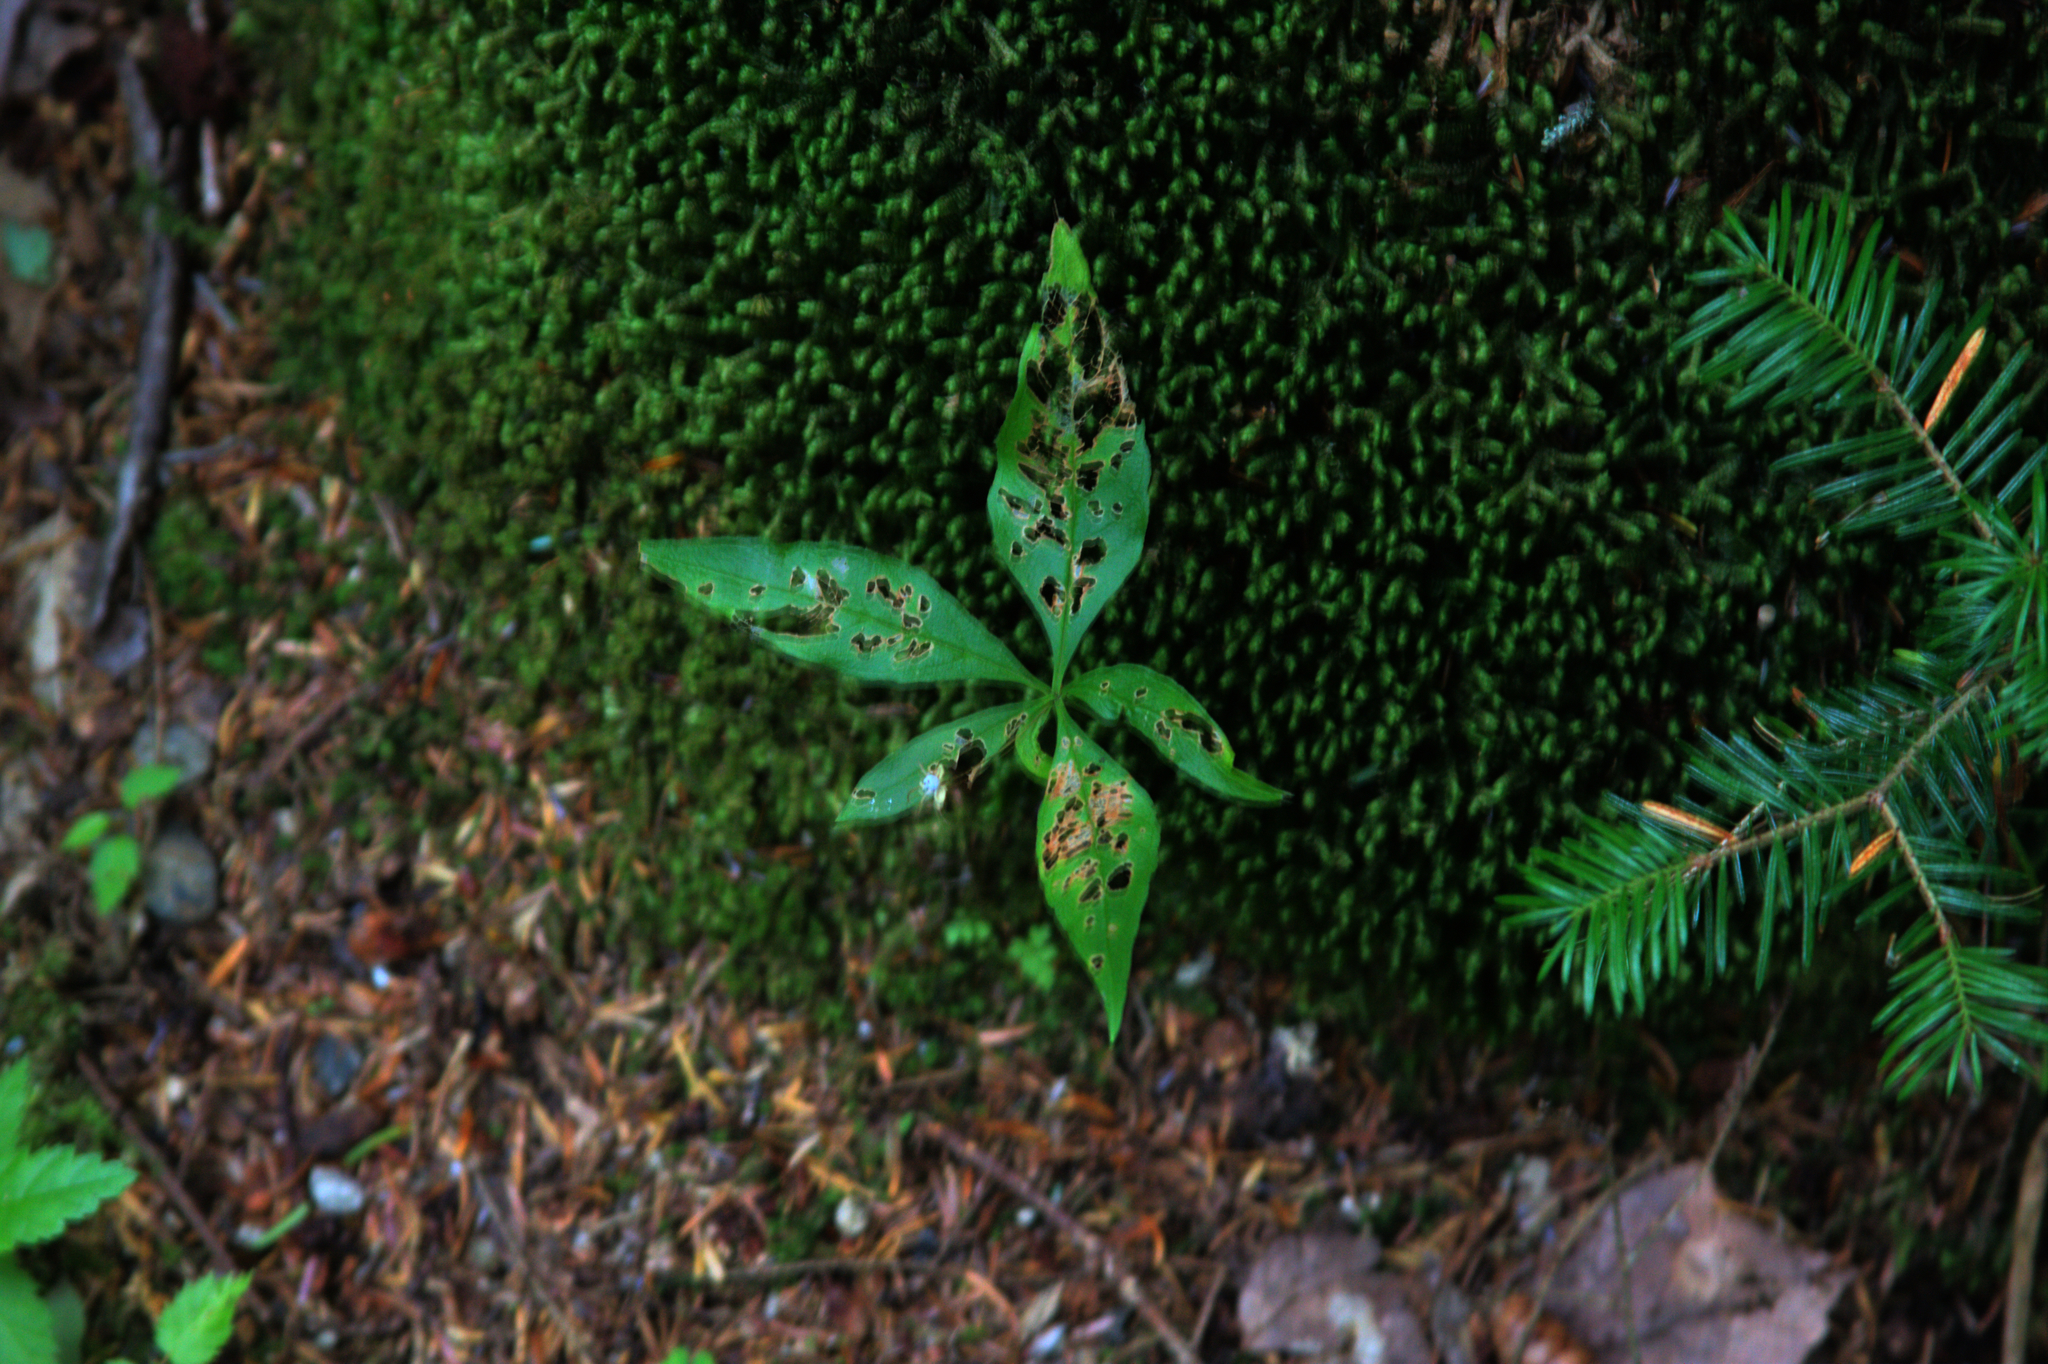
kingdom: Plantae
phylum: Tracheophyta
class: Magnoliopsida
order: Ericales
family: Primulaceae
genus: Lysimachia
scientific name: Lysimachia borealis
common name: American starflower
